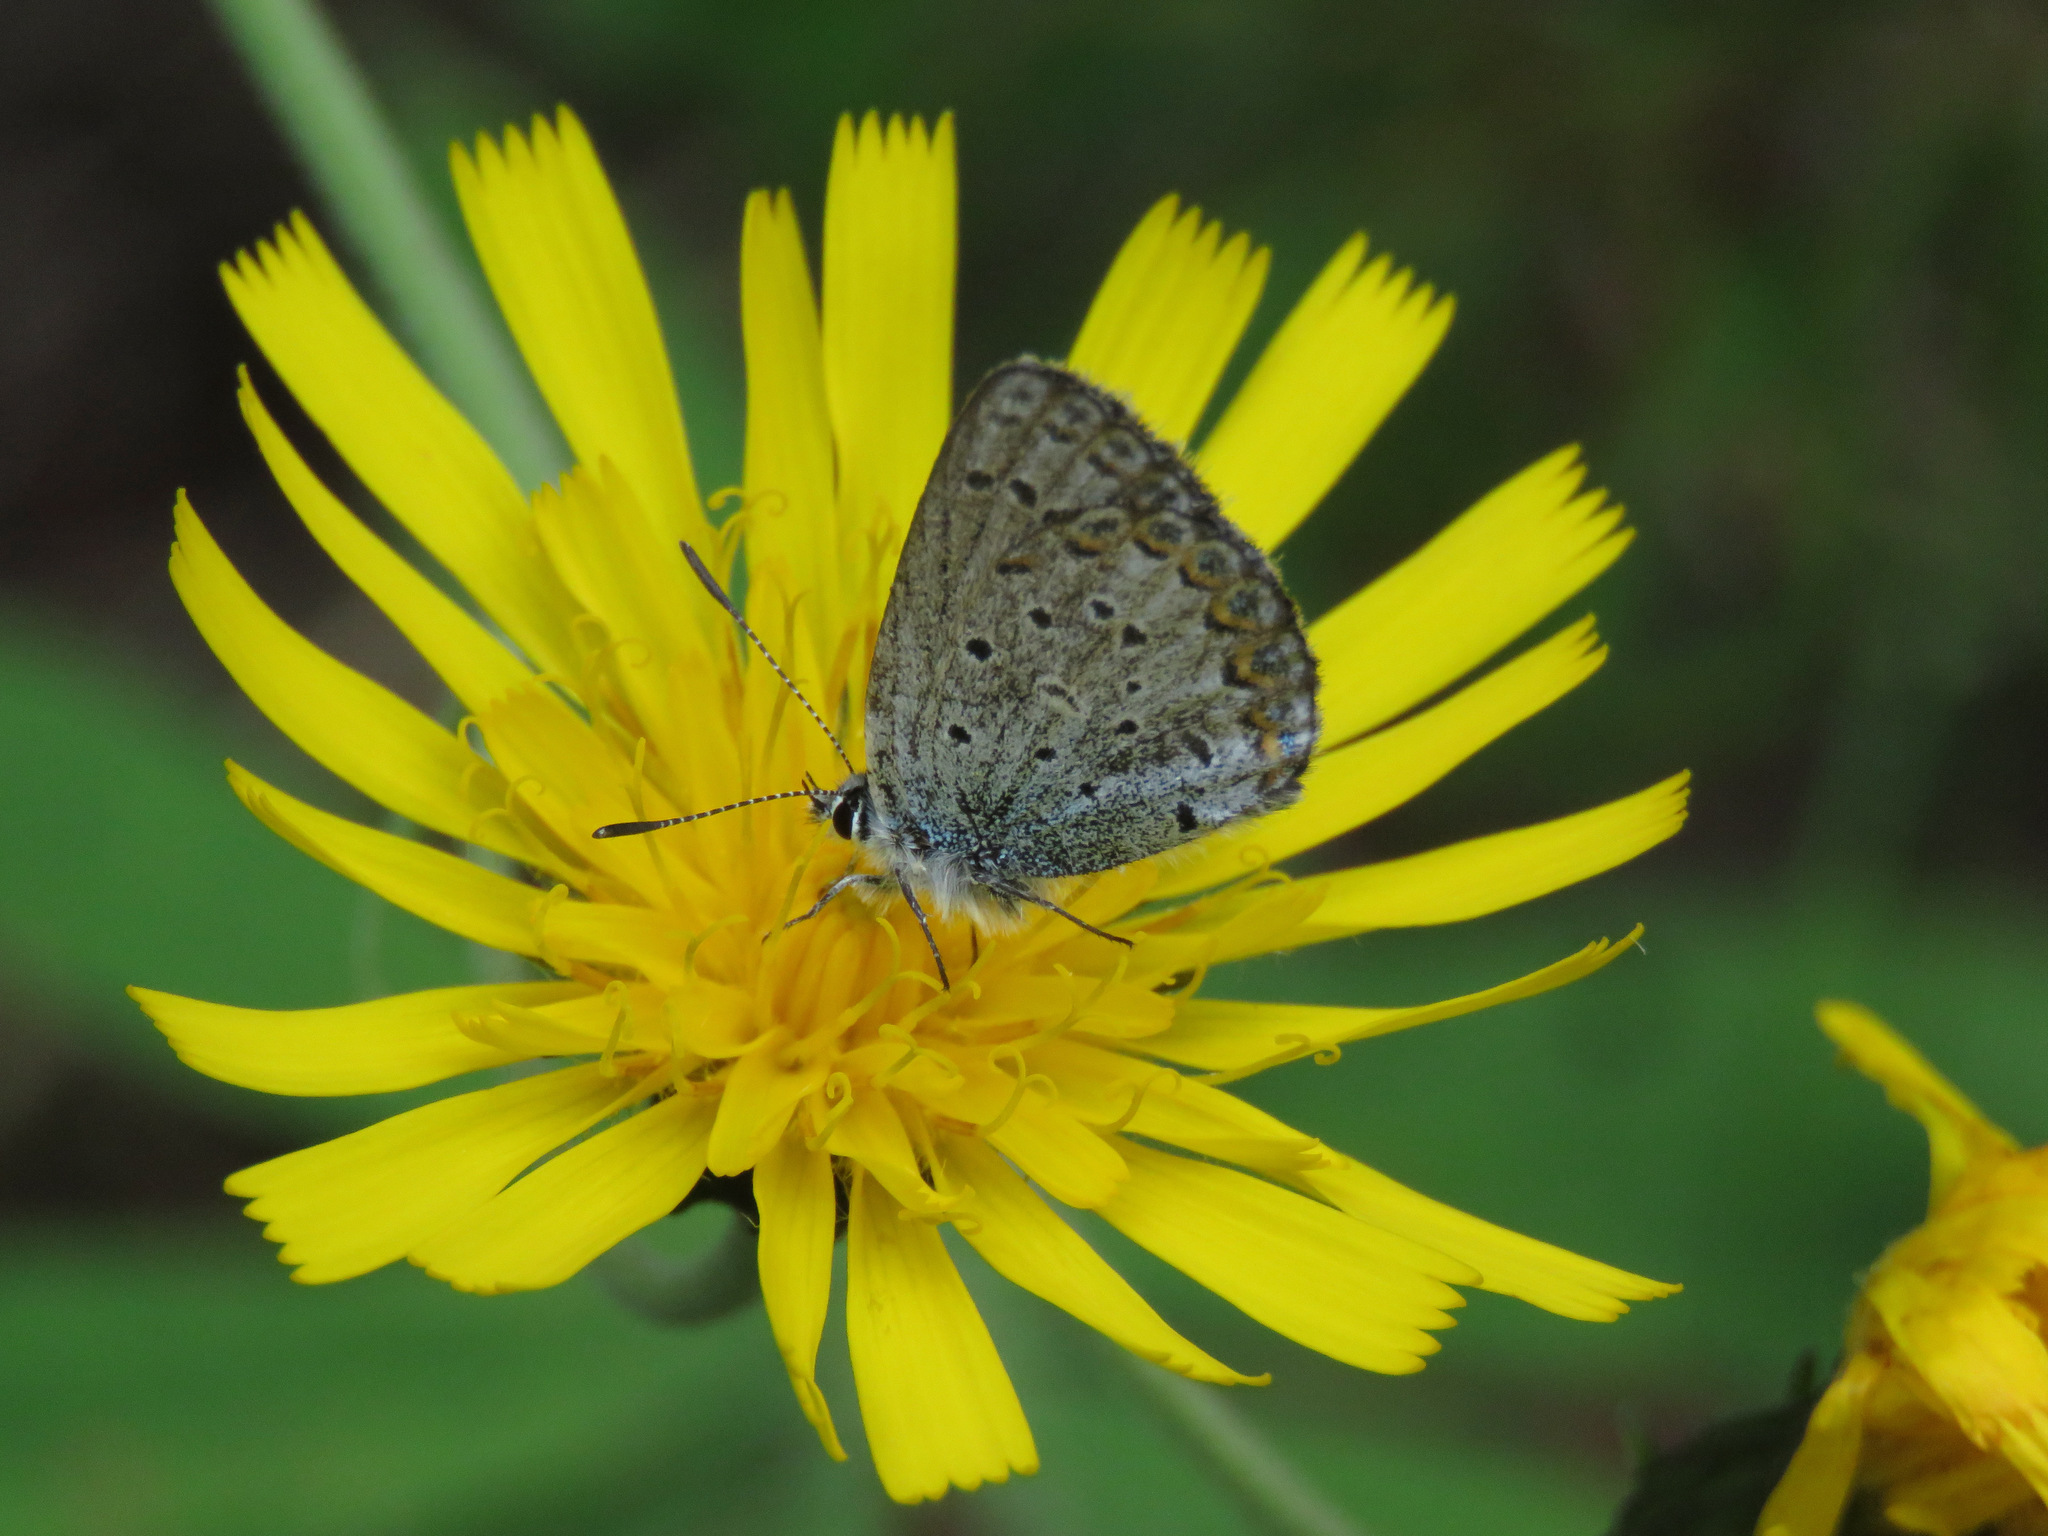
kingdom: Animalia
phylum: Arthropoda
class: Insecta
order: Lepidoptera
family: Lycaenidae
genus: Lycaeides
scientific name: Lycaeides idas
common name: Northern blue
